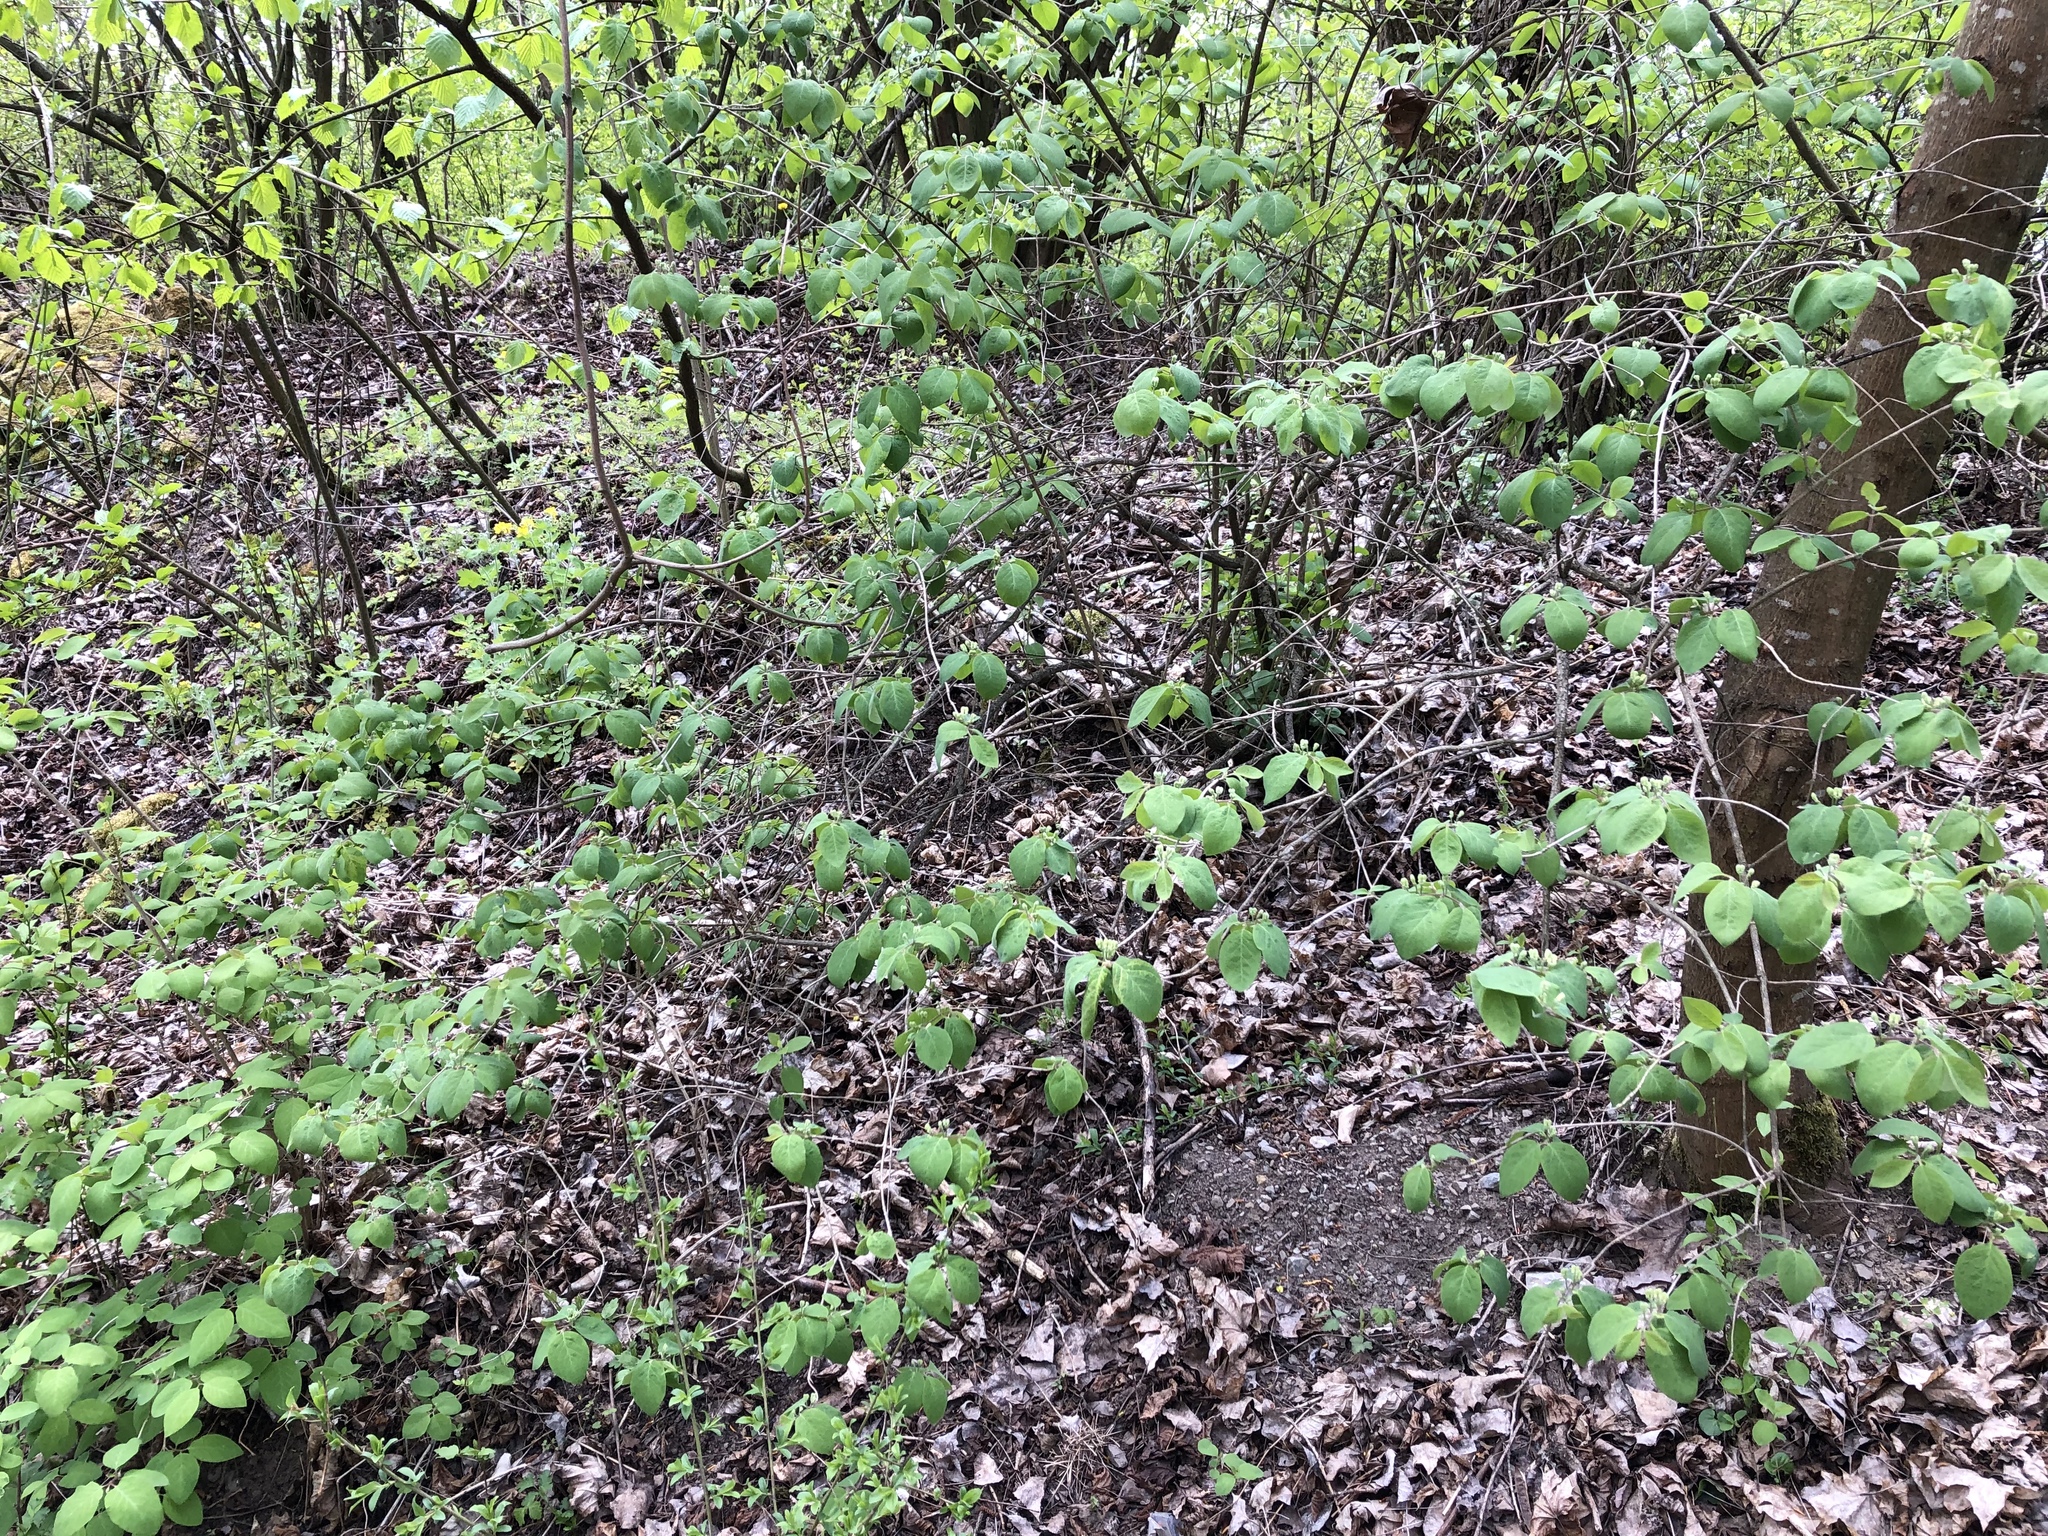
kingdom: Plantae
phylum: Tracheophyta
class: Magnoliopsida
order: Dipsacales
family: Caprifoliaceae
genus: Lonicera
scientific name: Lonicera xylosteum
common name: Fly honeysuckle
